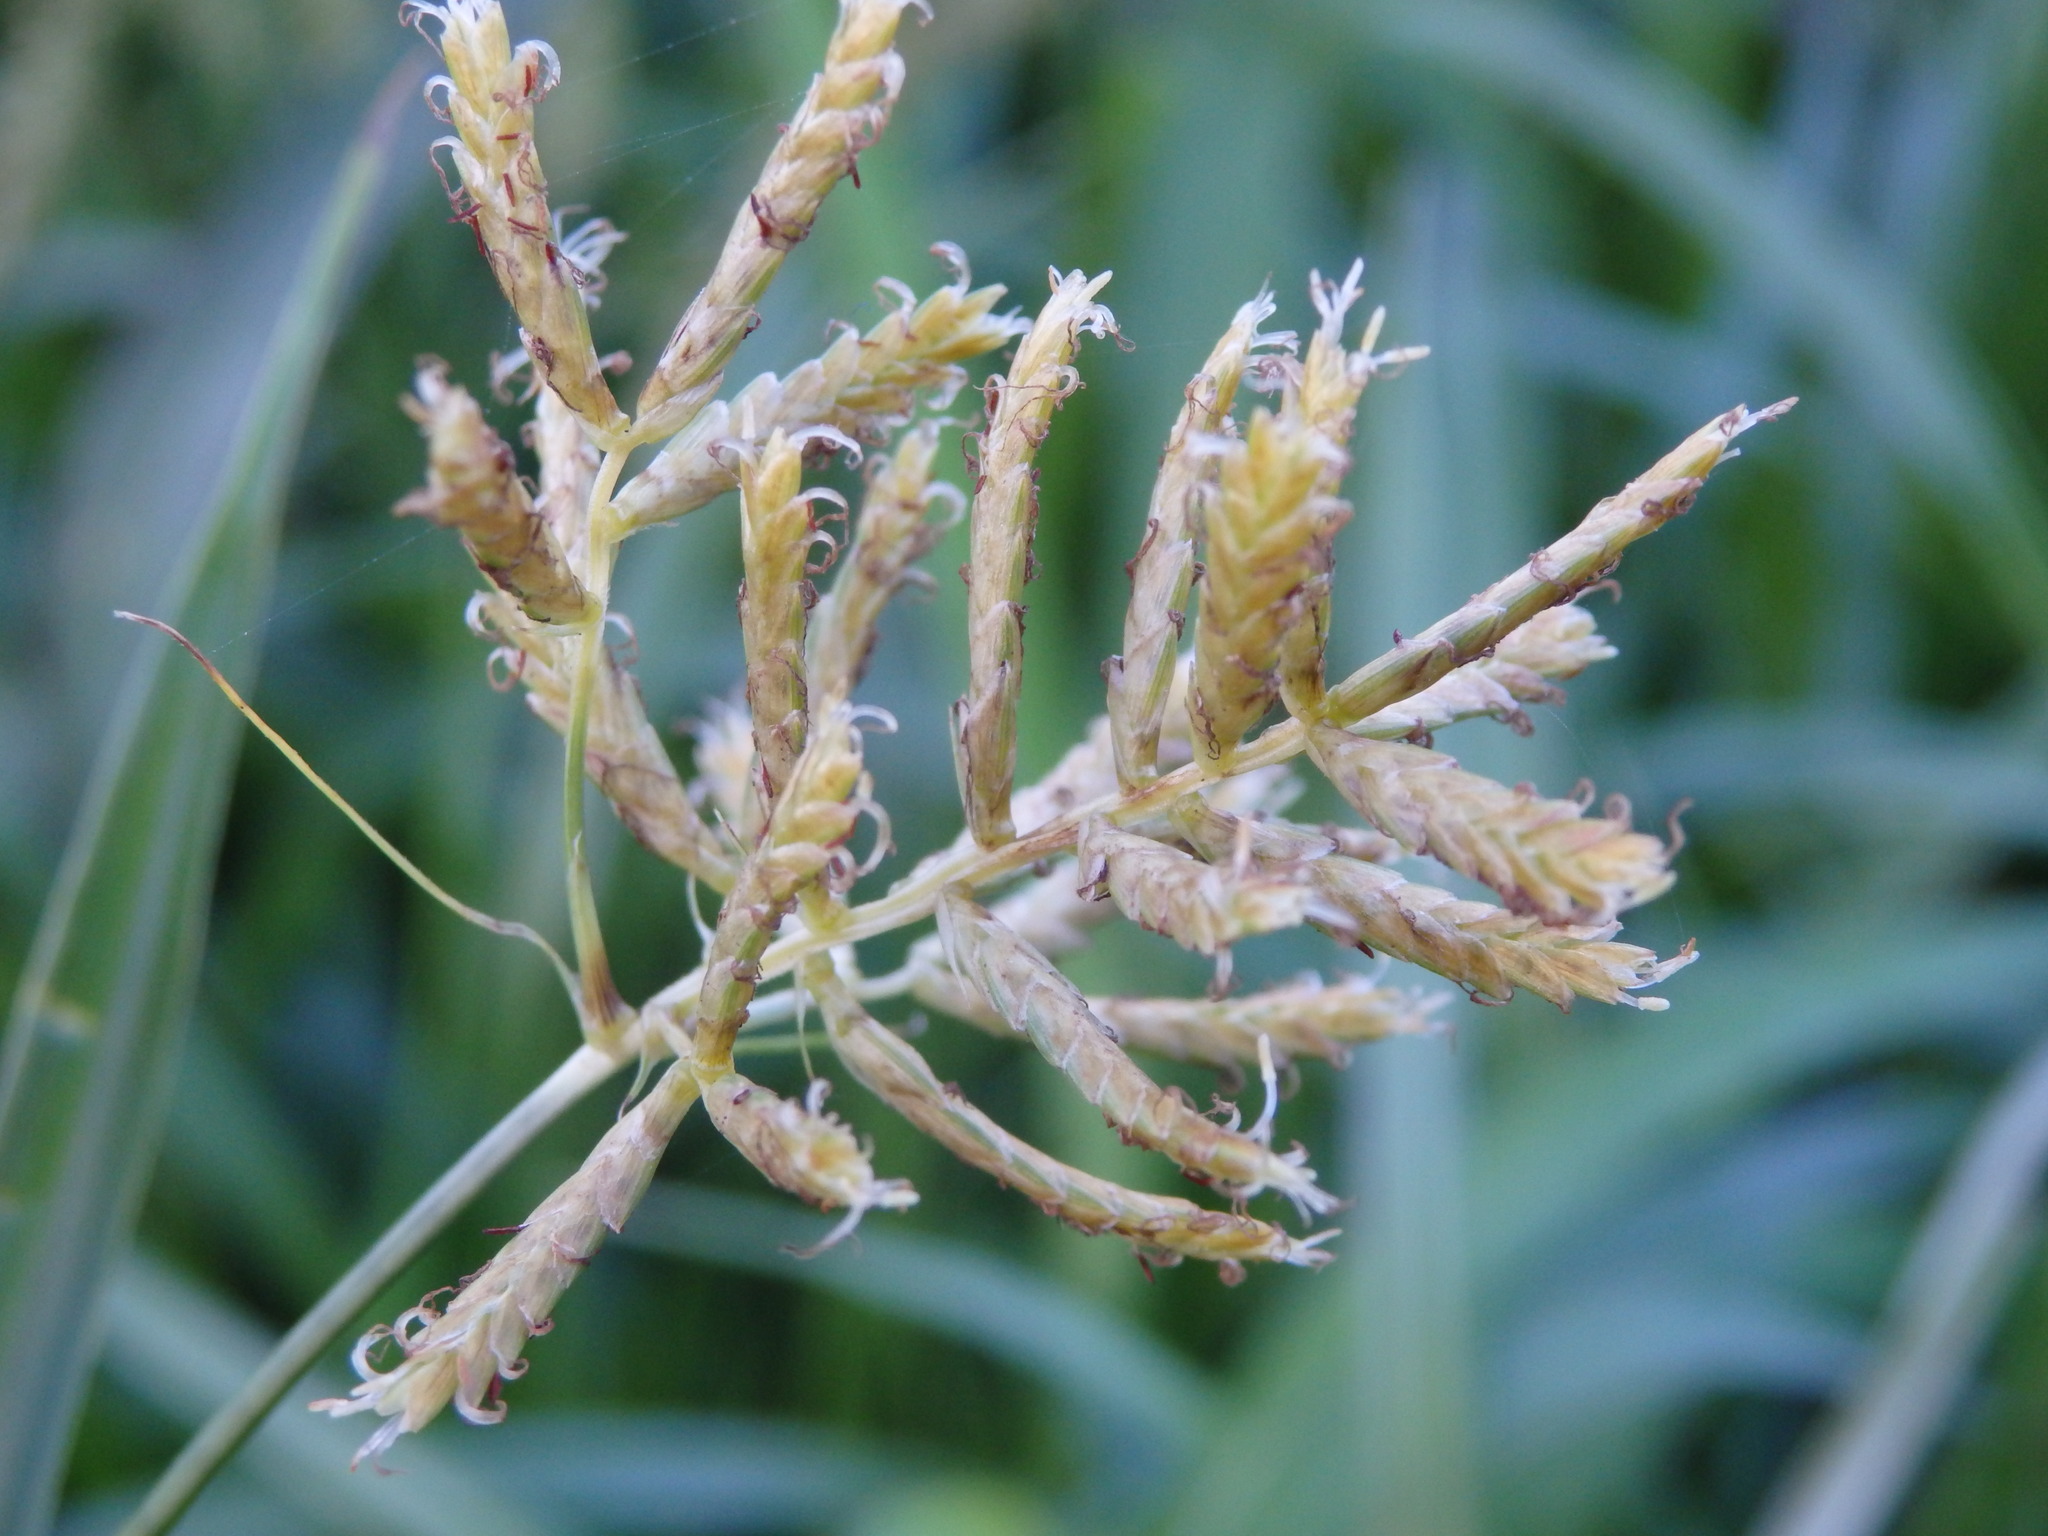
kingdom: Plantae
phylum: Tracheophyta
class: Liliopsida
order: Poales
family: Cyperaceae
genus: Cyperus
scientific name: Cyperus esculentus
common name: Yellow nutsedge
